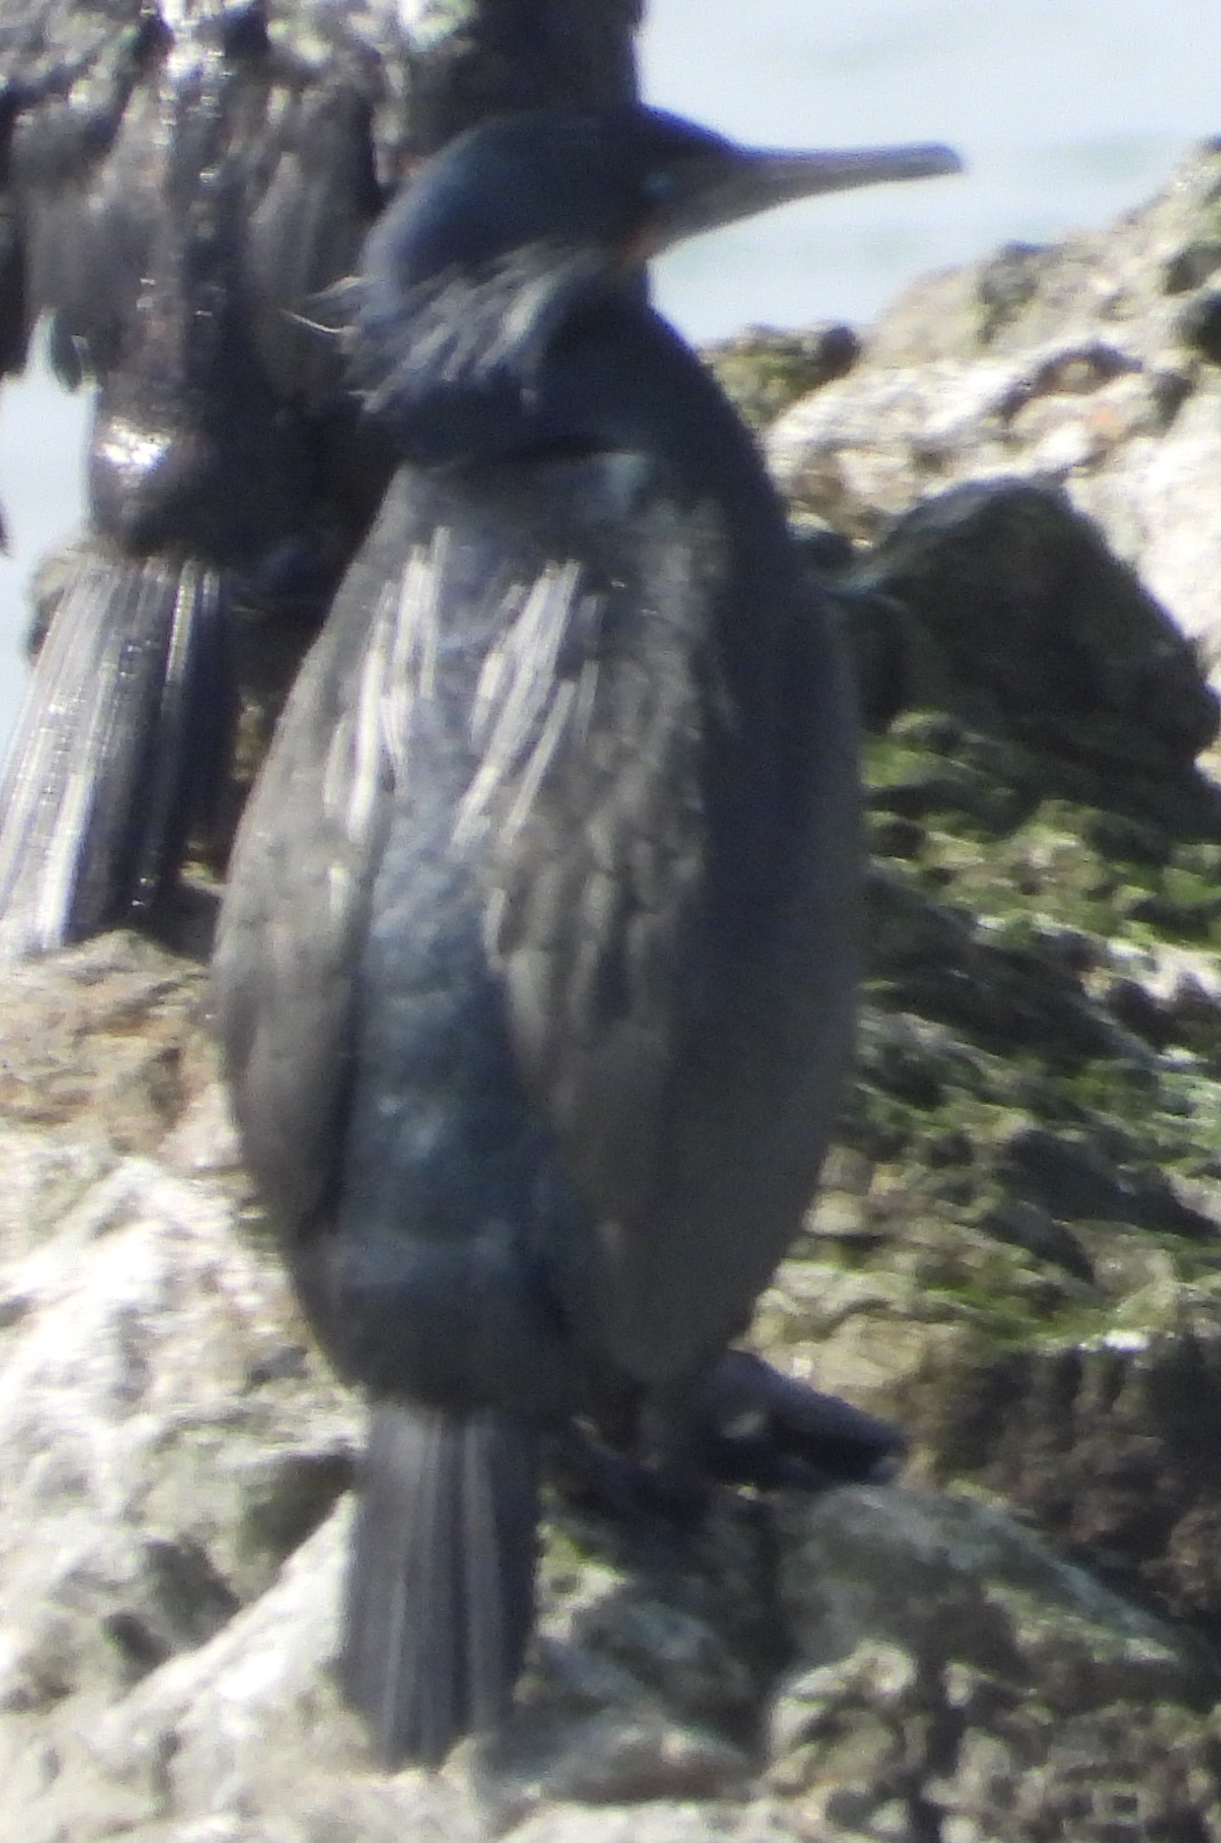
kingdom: Animalia
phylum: Chordata
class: Aves
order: Suliformes
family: Phalacrocoracidae
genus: Urile
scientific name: Urile penicillatus
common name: Brandt's cormorant
